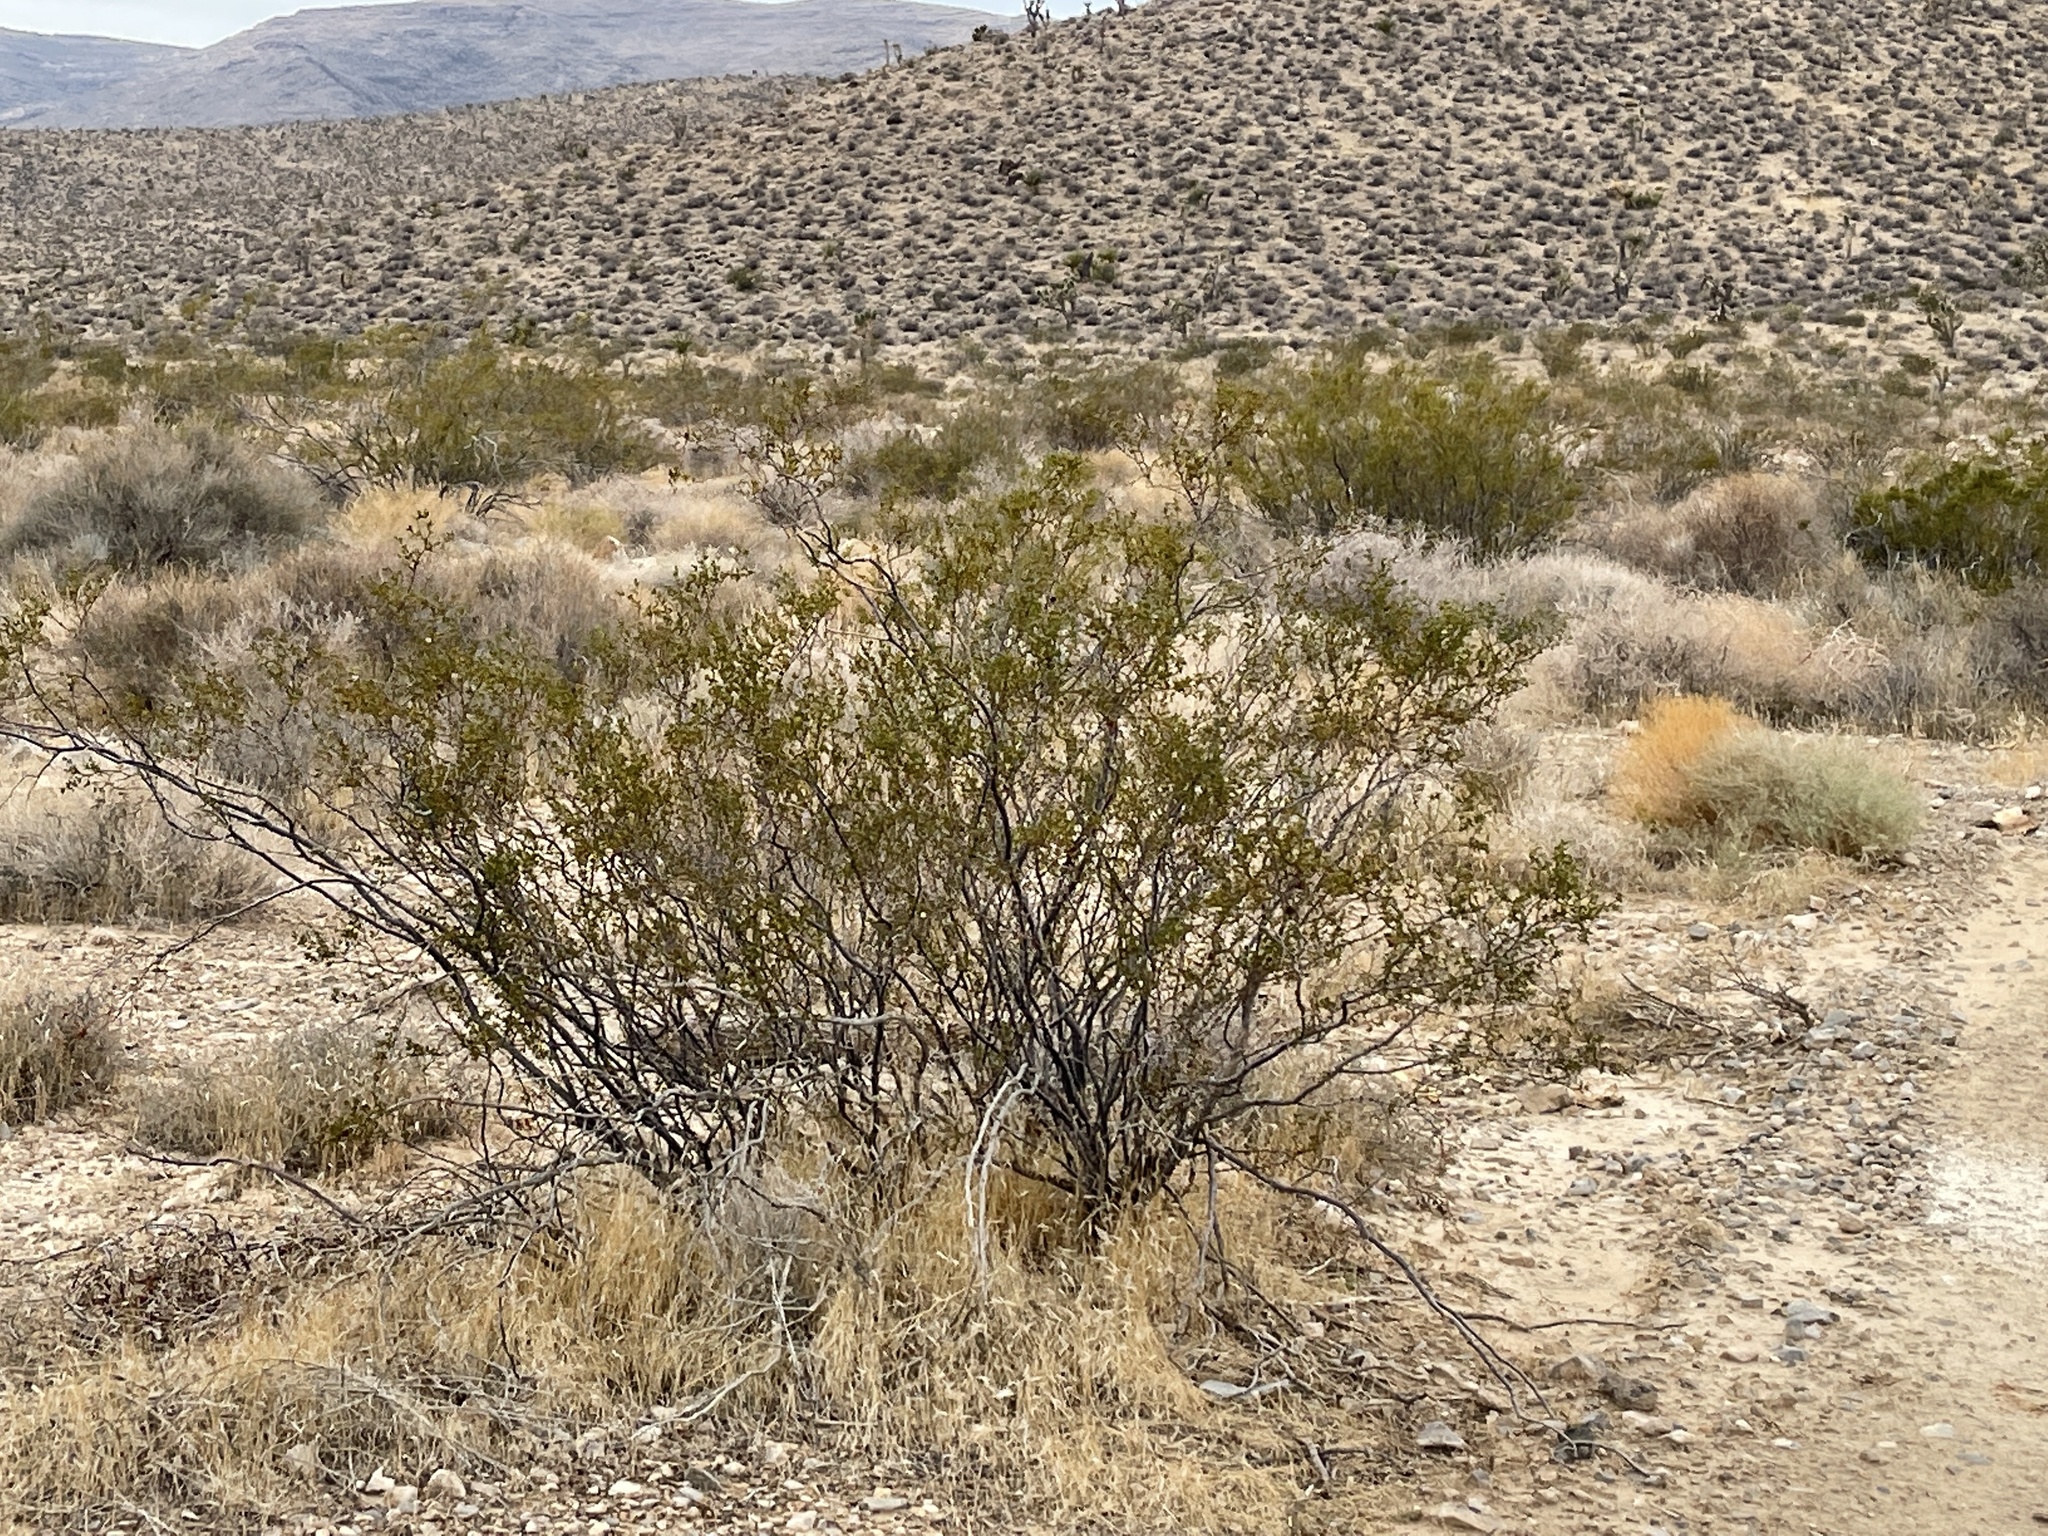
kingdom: Plantae
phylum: Tracheophyta
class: Magnoliopsida
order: Zygophyllales
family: Zygophyllaceae
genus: Larrea
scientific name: Larrea tridentata
